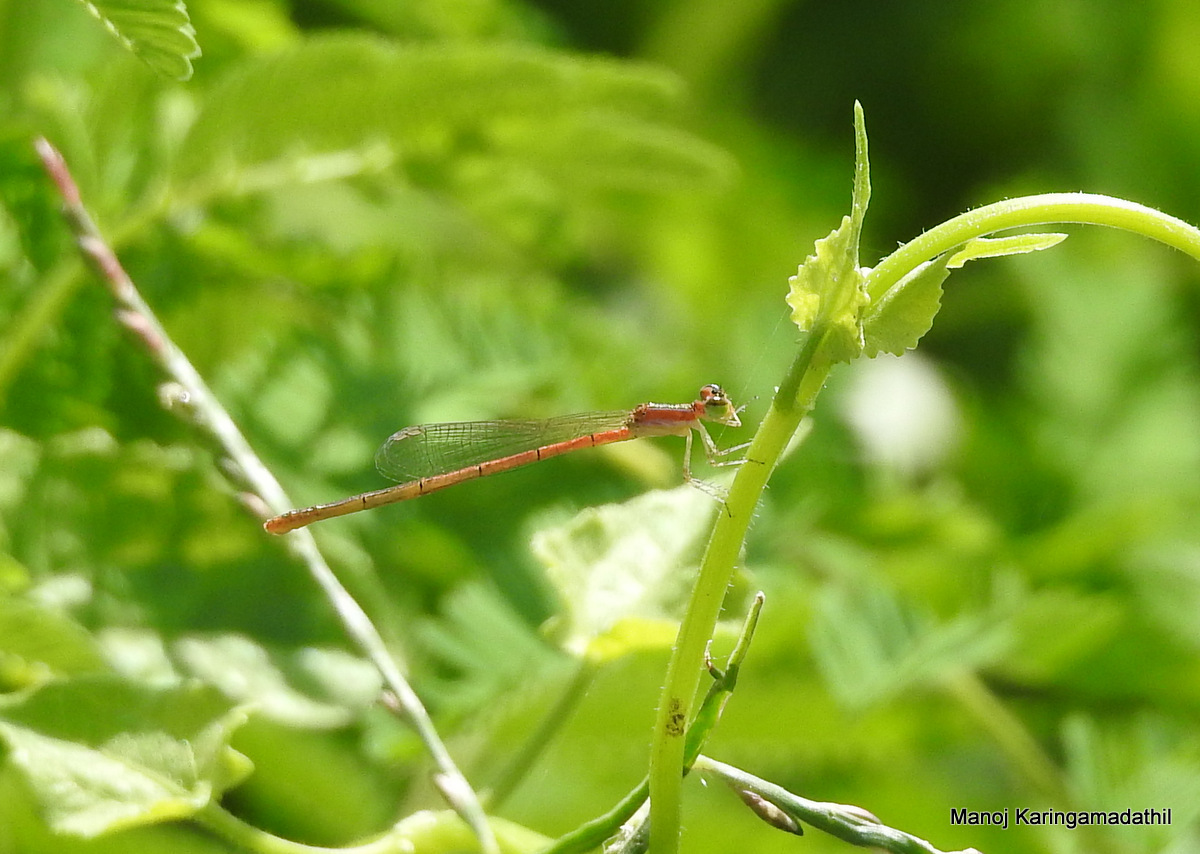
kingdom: Animalia
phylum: Arthropoda
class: Insecta
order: Odonata
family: Coenagrionidae
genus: Agriocnemis
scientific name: Agriocnemis pygmaea
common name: Pygmy wisp
